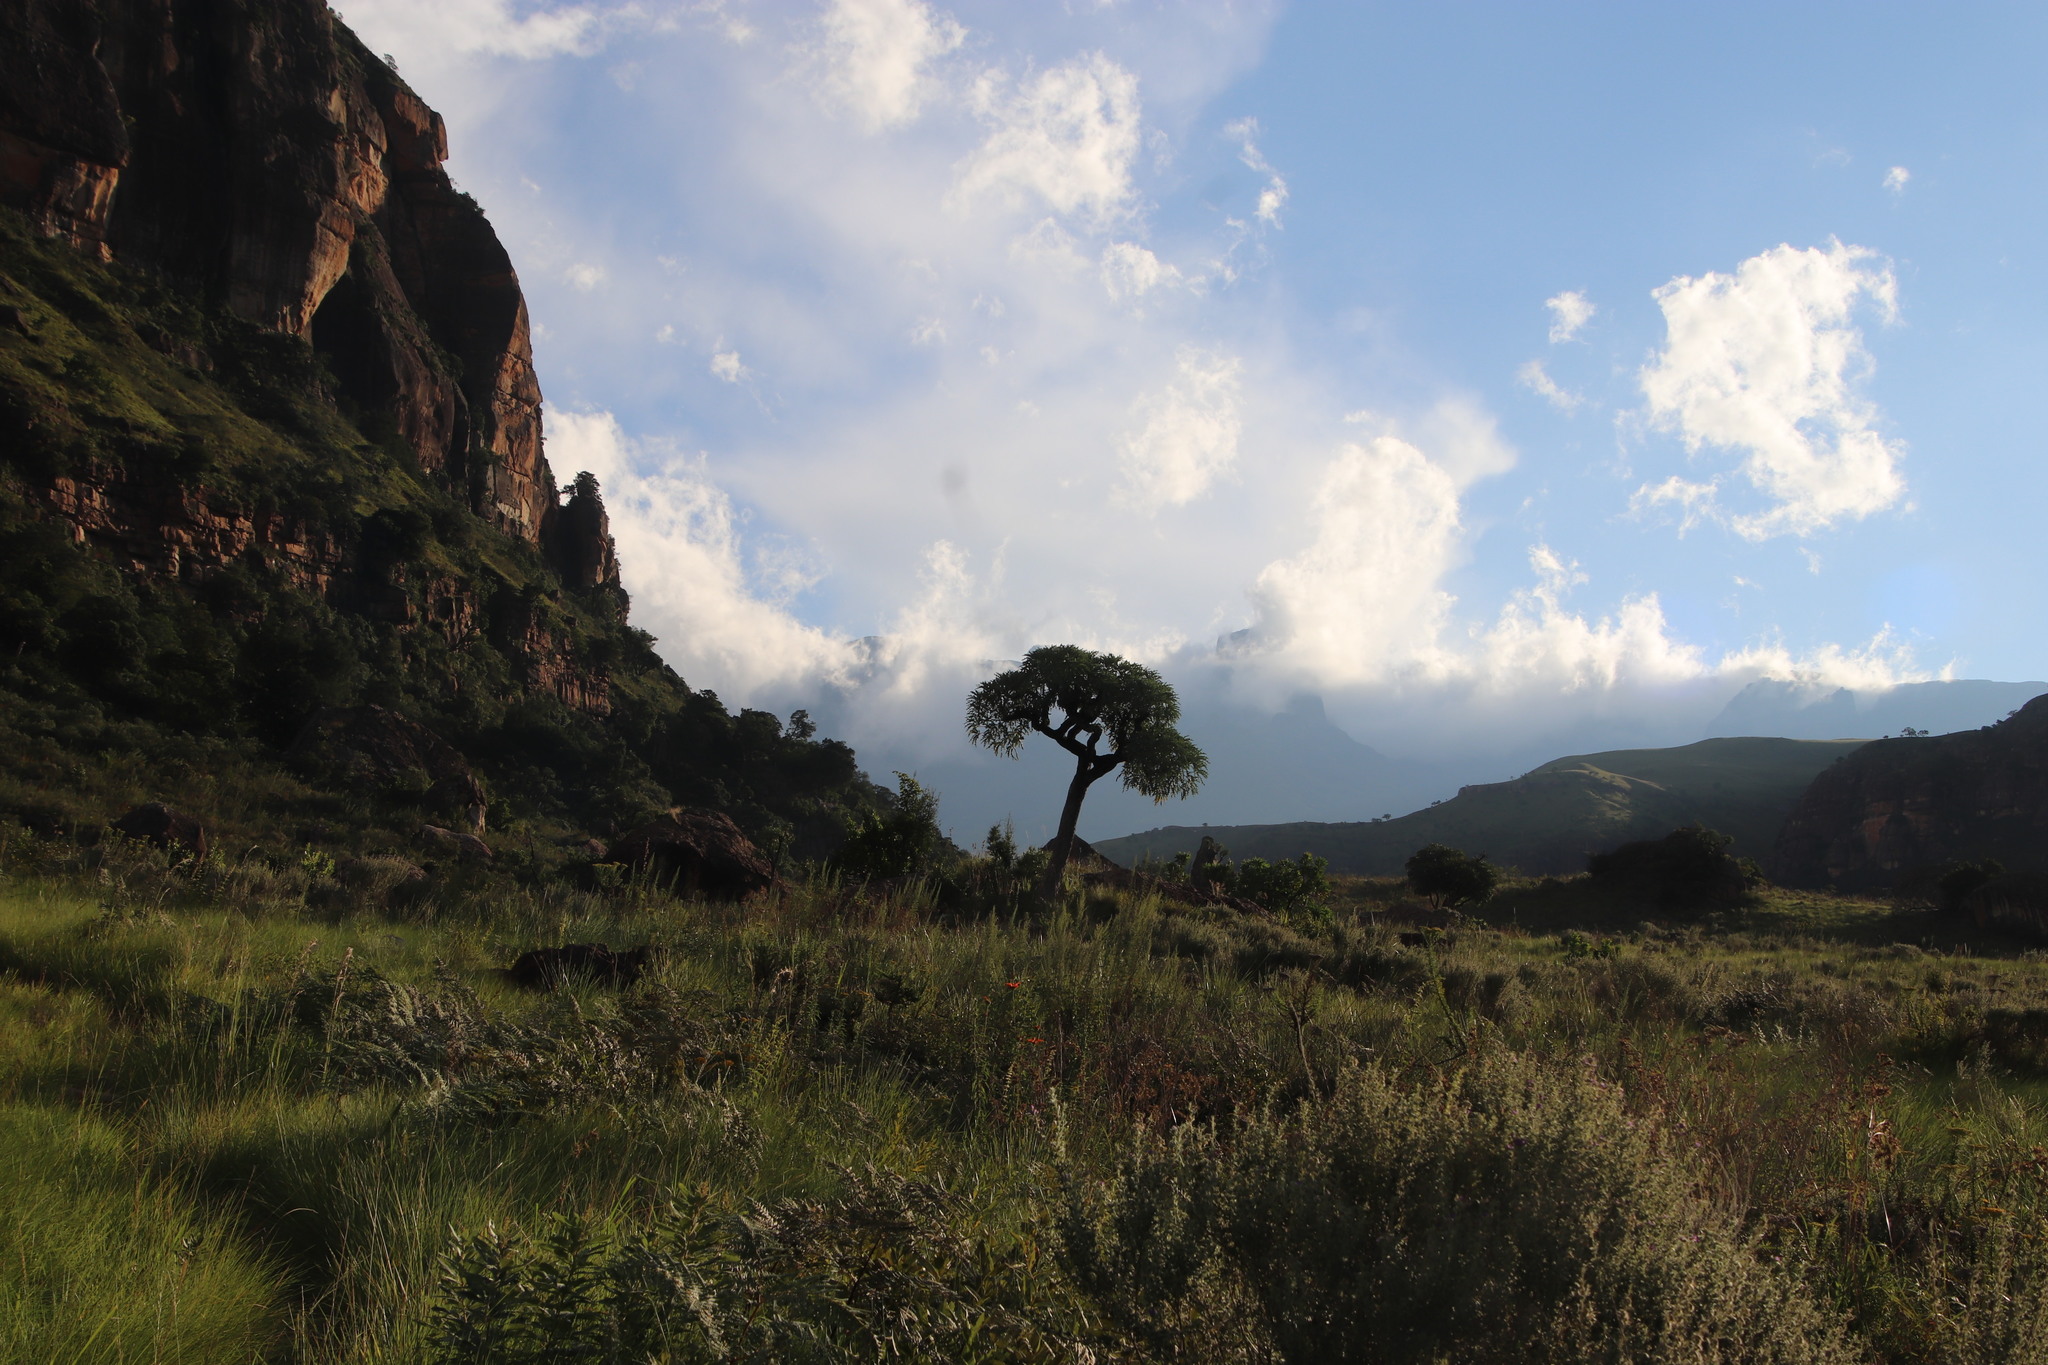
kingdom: Plantae
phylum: Tracheophyta
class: Magnoliopsida
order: Apiales
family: Araliaceae
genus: Cussonia
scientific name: Cussonia paniculata
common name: Cabbagetree
